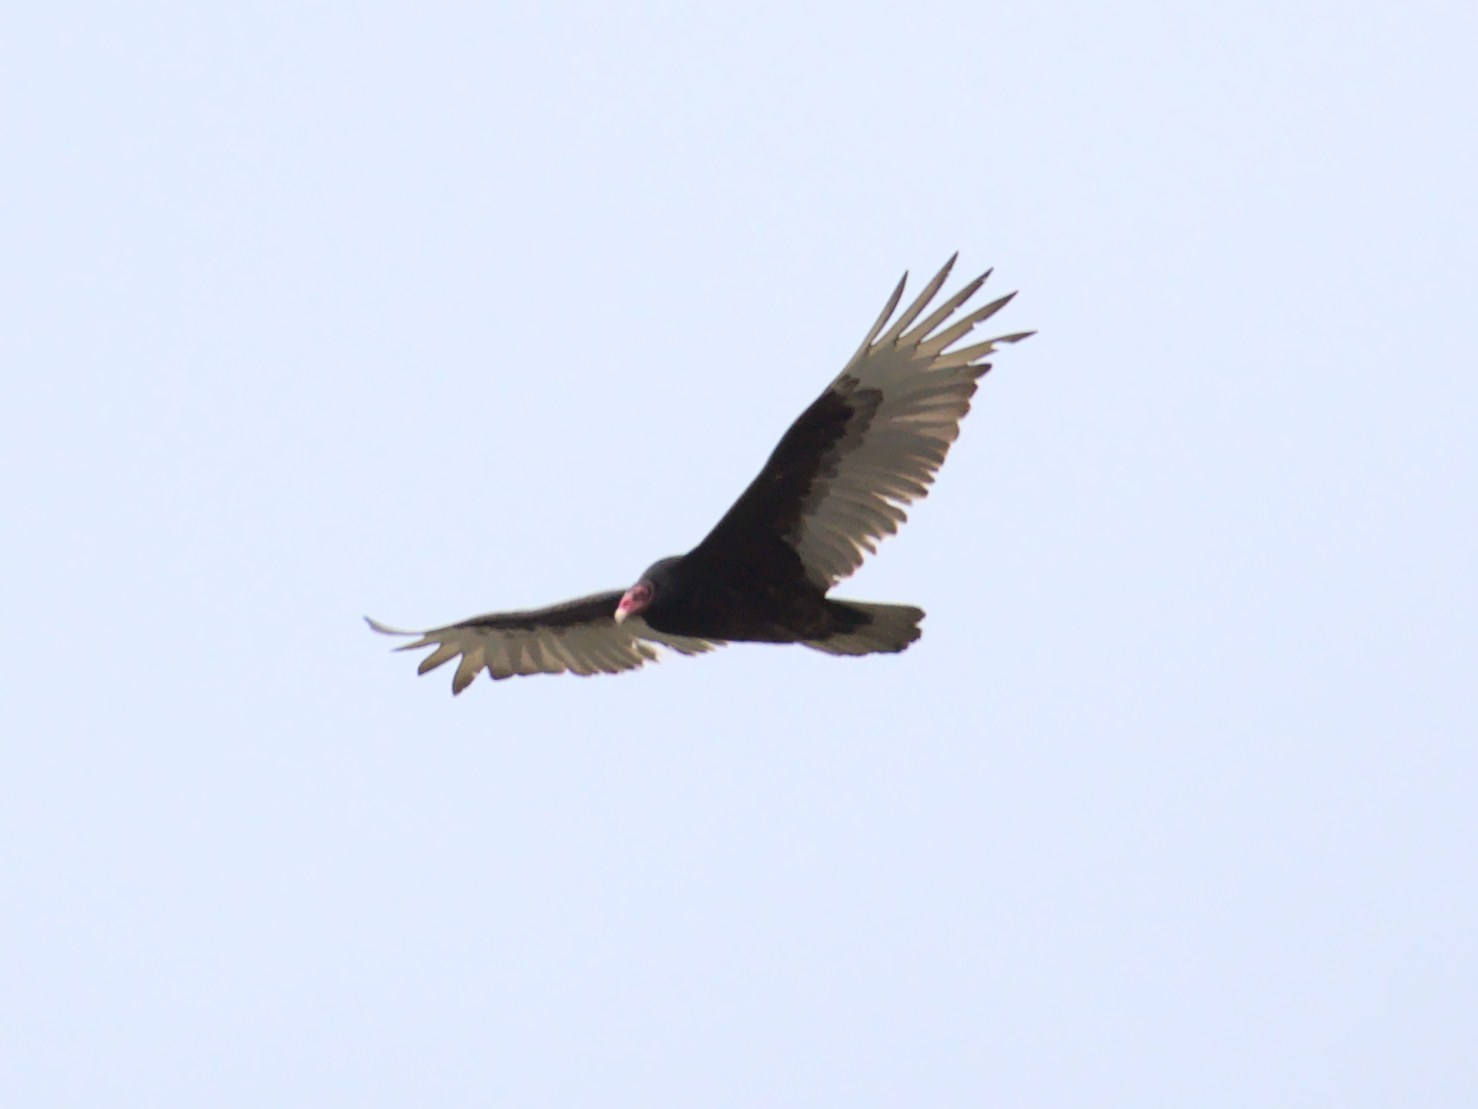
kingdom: Animalia
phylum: Chordata
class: Aves
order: Accipitriformes
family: Cathartidae
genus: Cathartes
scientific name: Cathartes aura
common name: Turkey vulture
